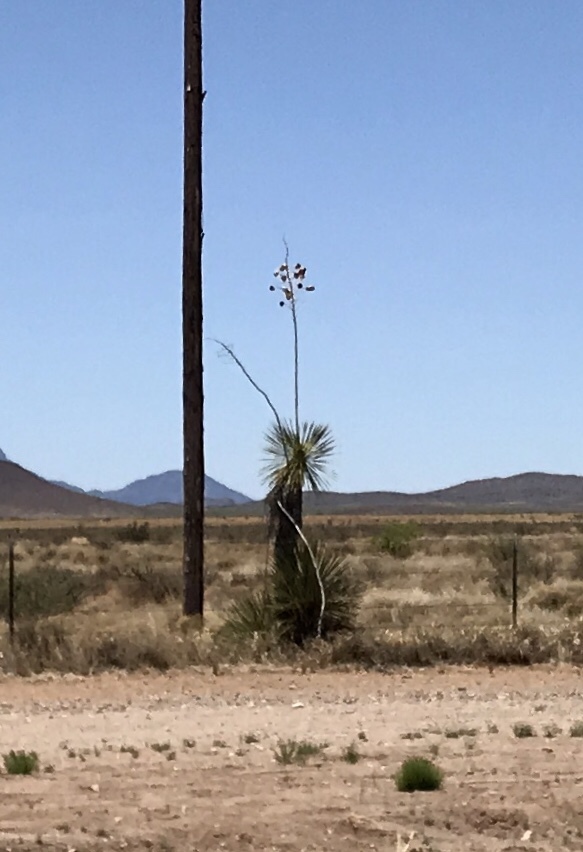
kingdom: Plantae
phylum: Tracheophyta
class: Liliopsida
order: Asparagales
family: Asparagaceae
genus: Yucca
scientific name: Yucca elata
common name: Palmella
